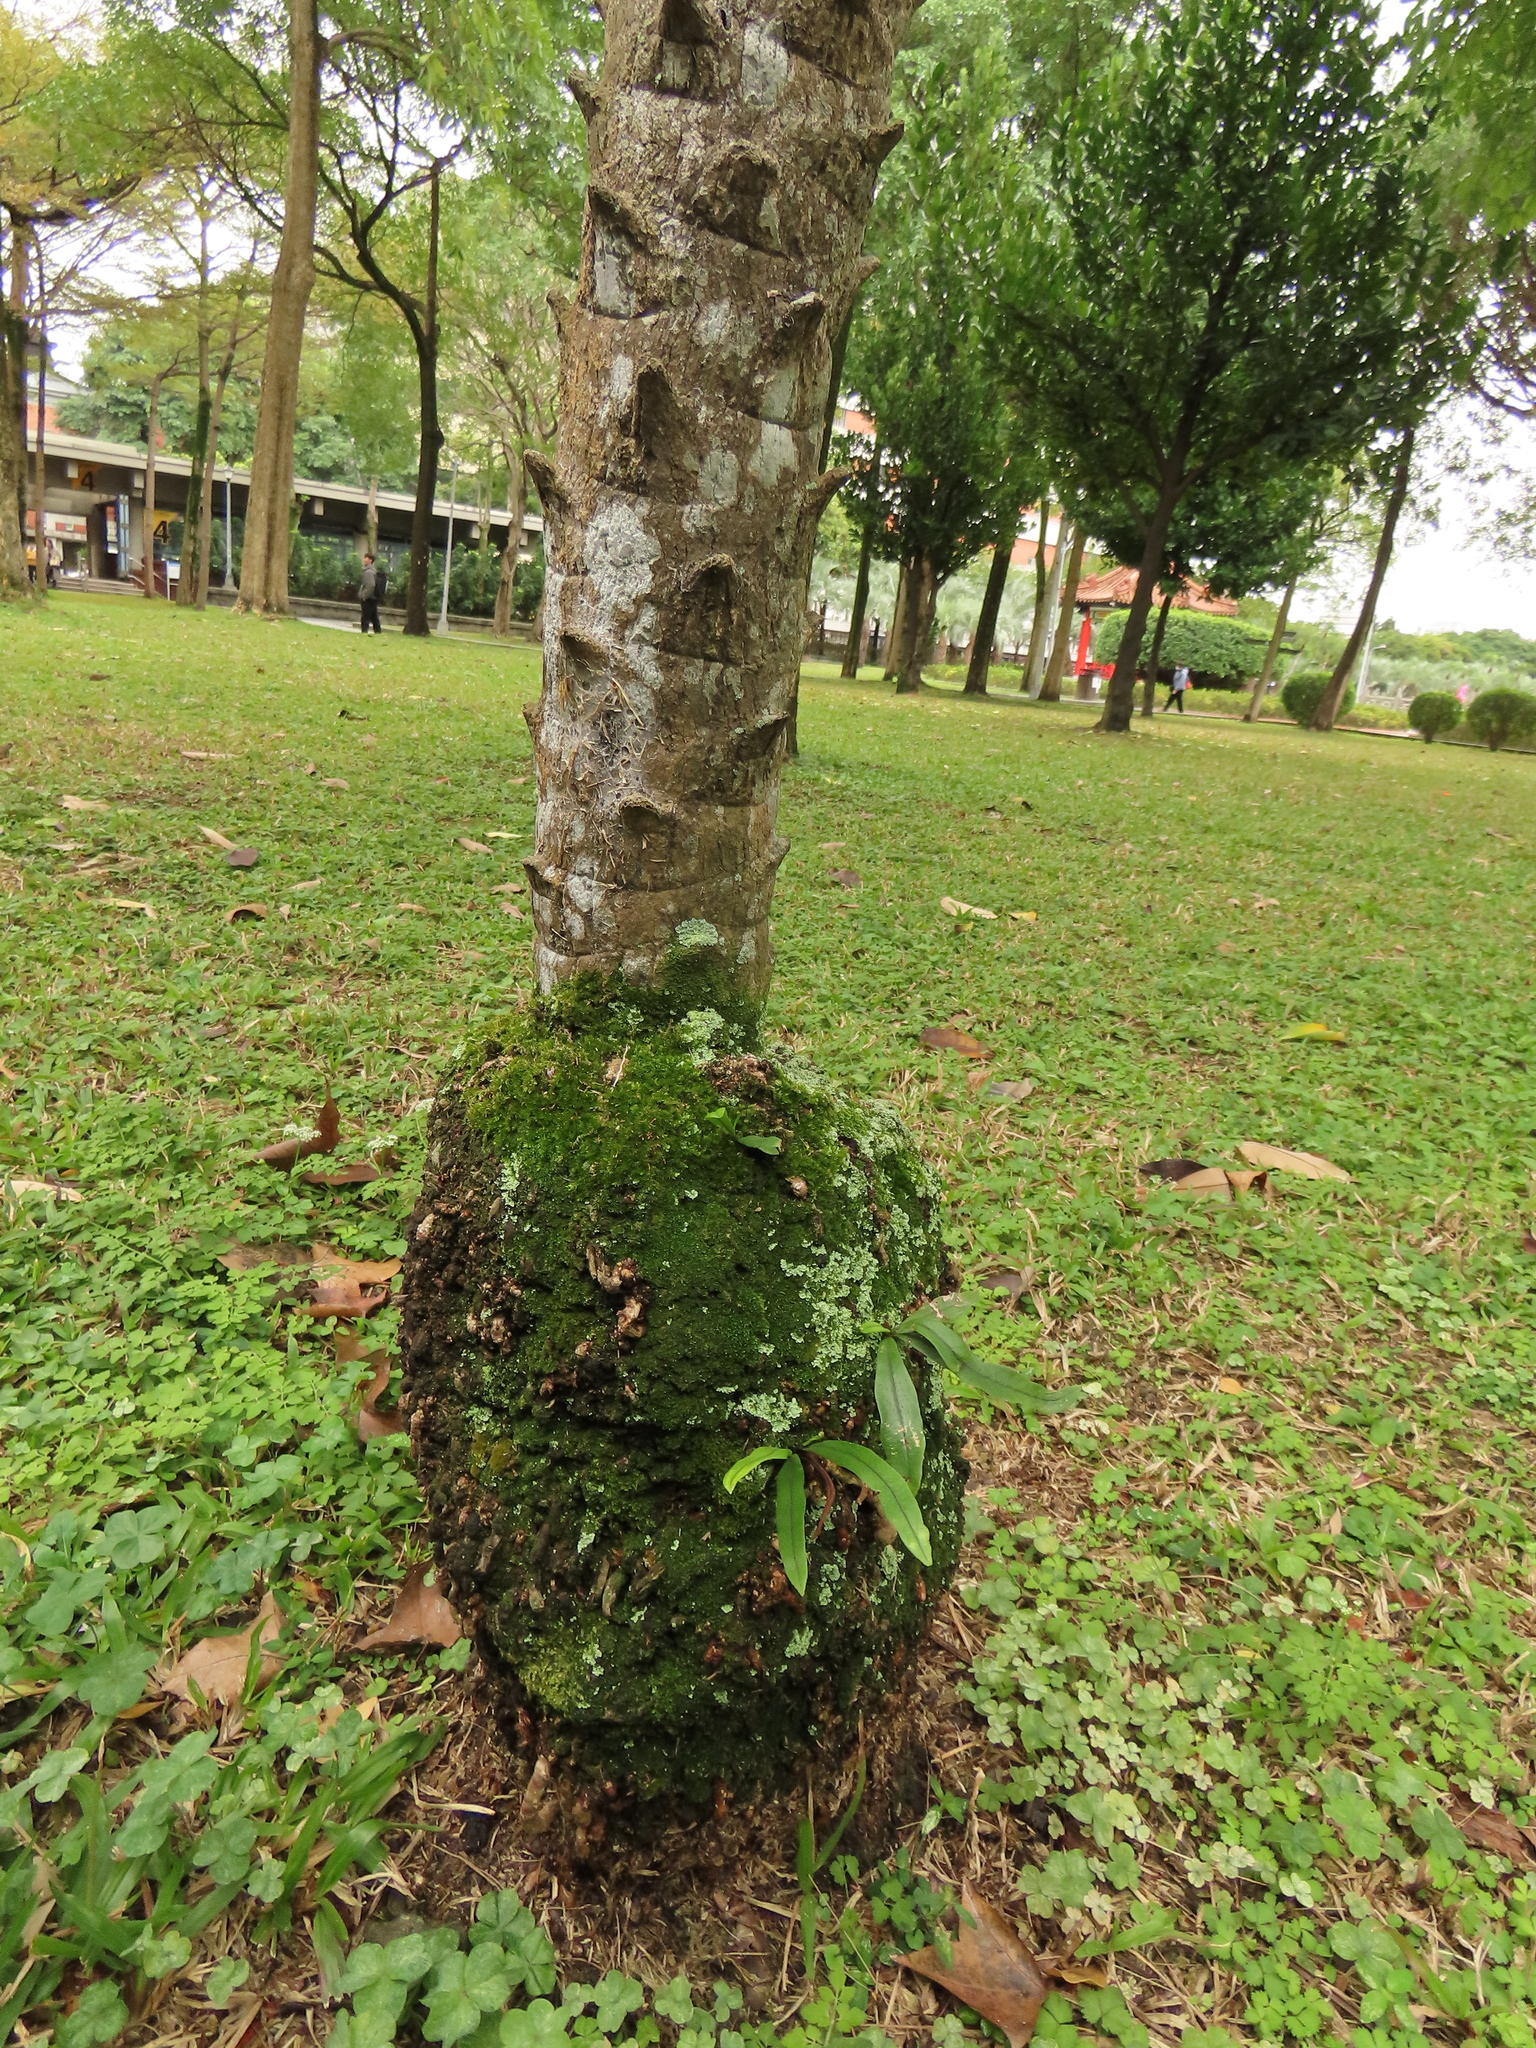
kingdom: Plantae
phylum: Tracheophyta
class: Polypodiopsida
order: Polypodiales
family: Polypodiaceae
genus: Lepisorus
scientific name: Lepisorus thunbergianus
